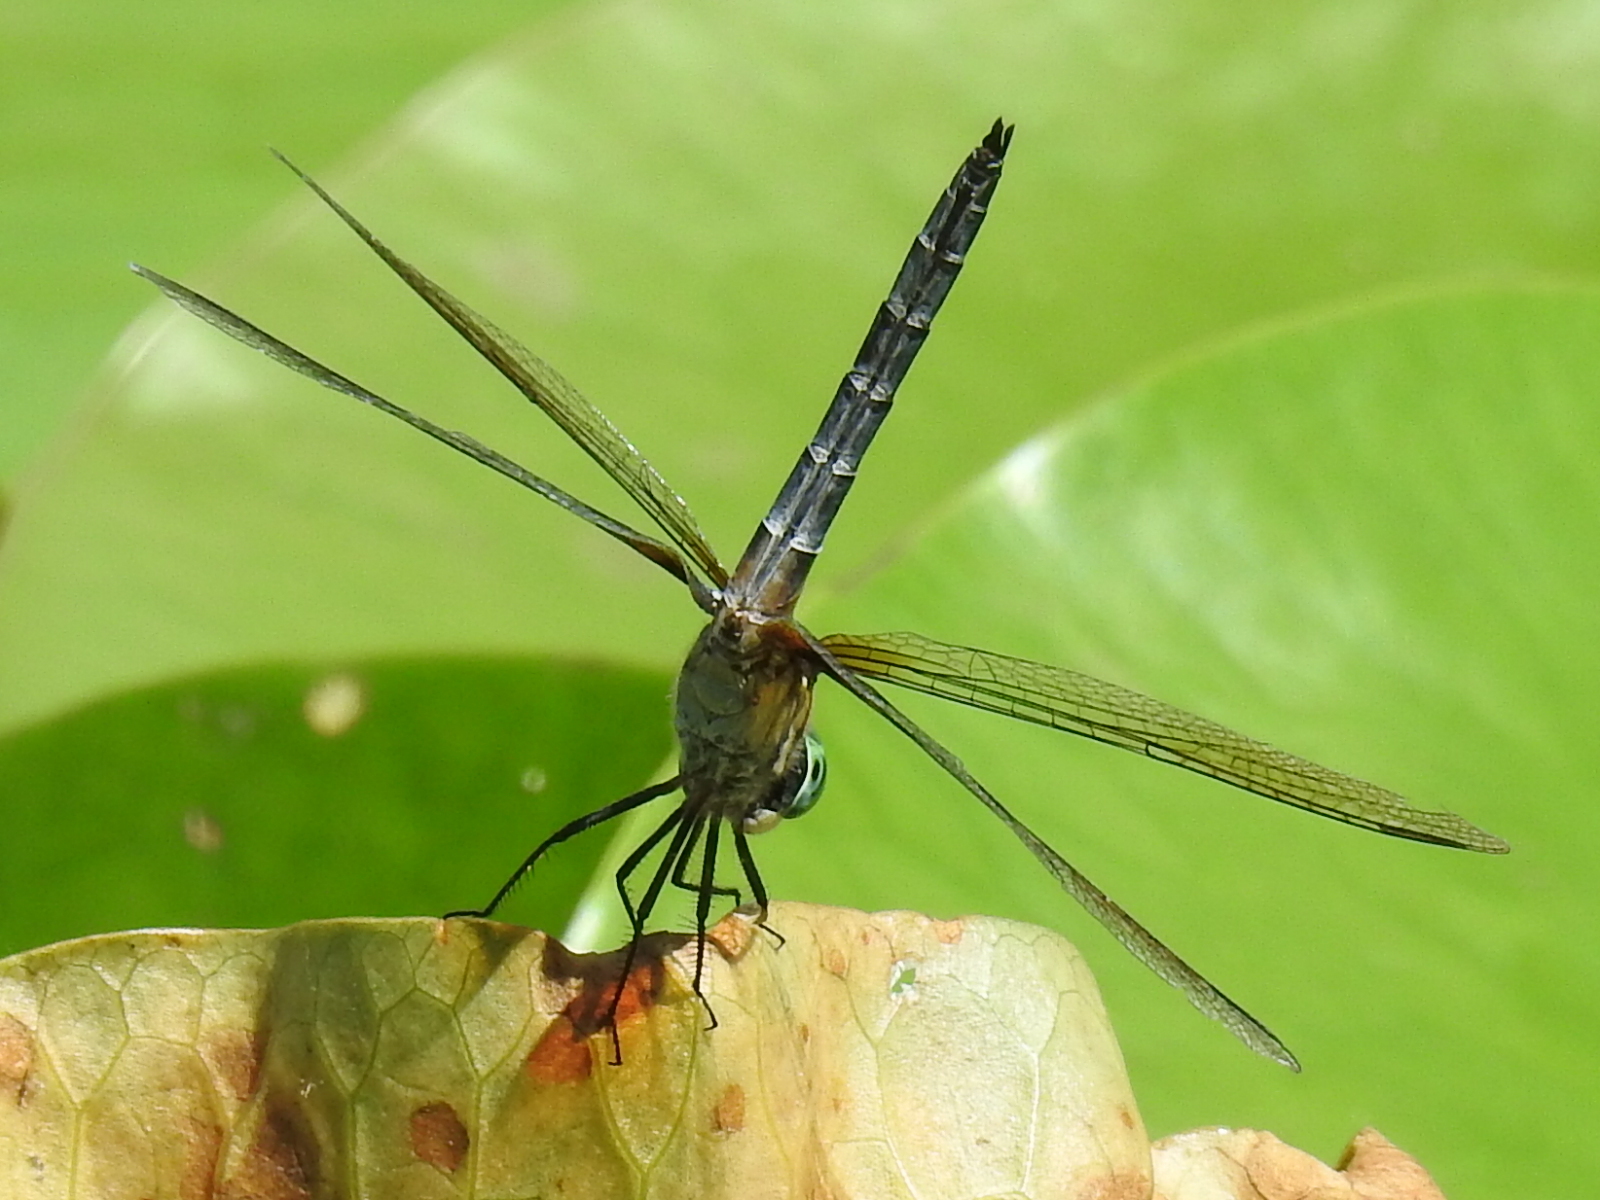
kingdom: Animalia
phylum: Arthropoda
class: Insecta
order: Odonata
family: Libellulidae
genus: Pachydiplax
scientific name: Pachydiplax longipennis
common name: Blue dasher
